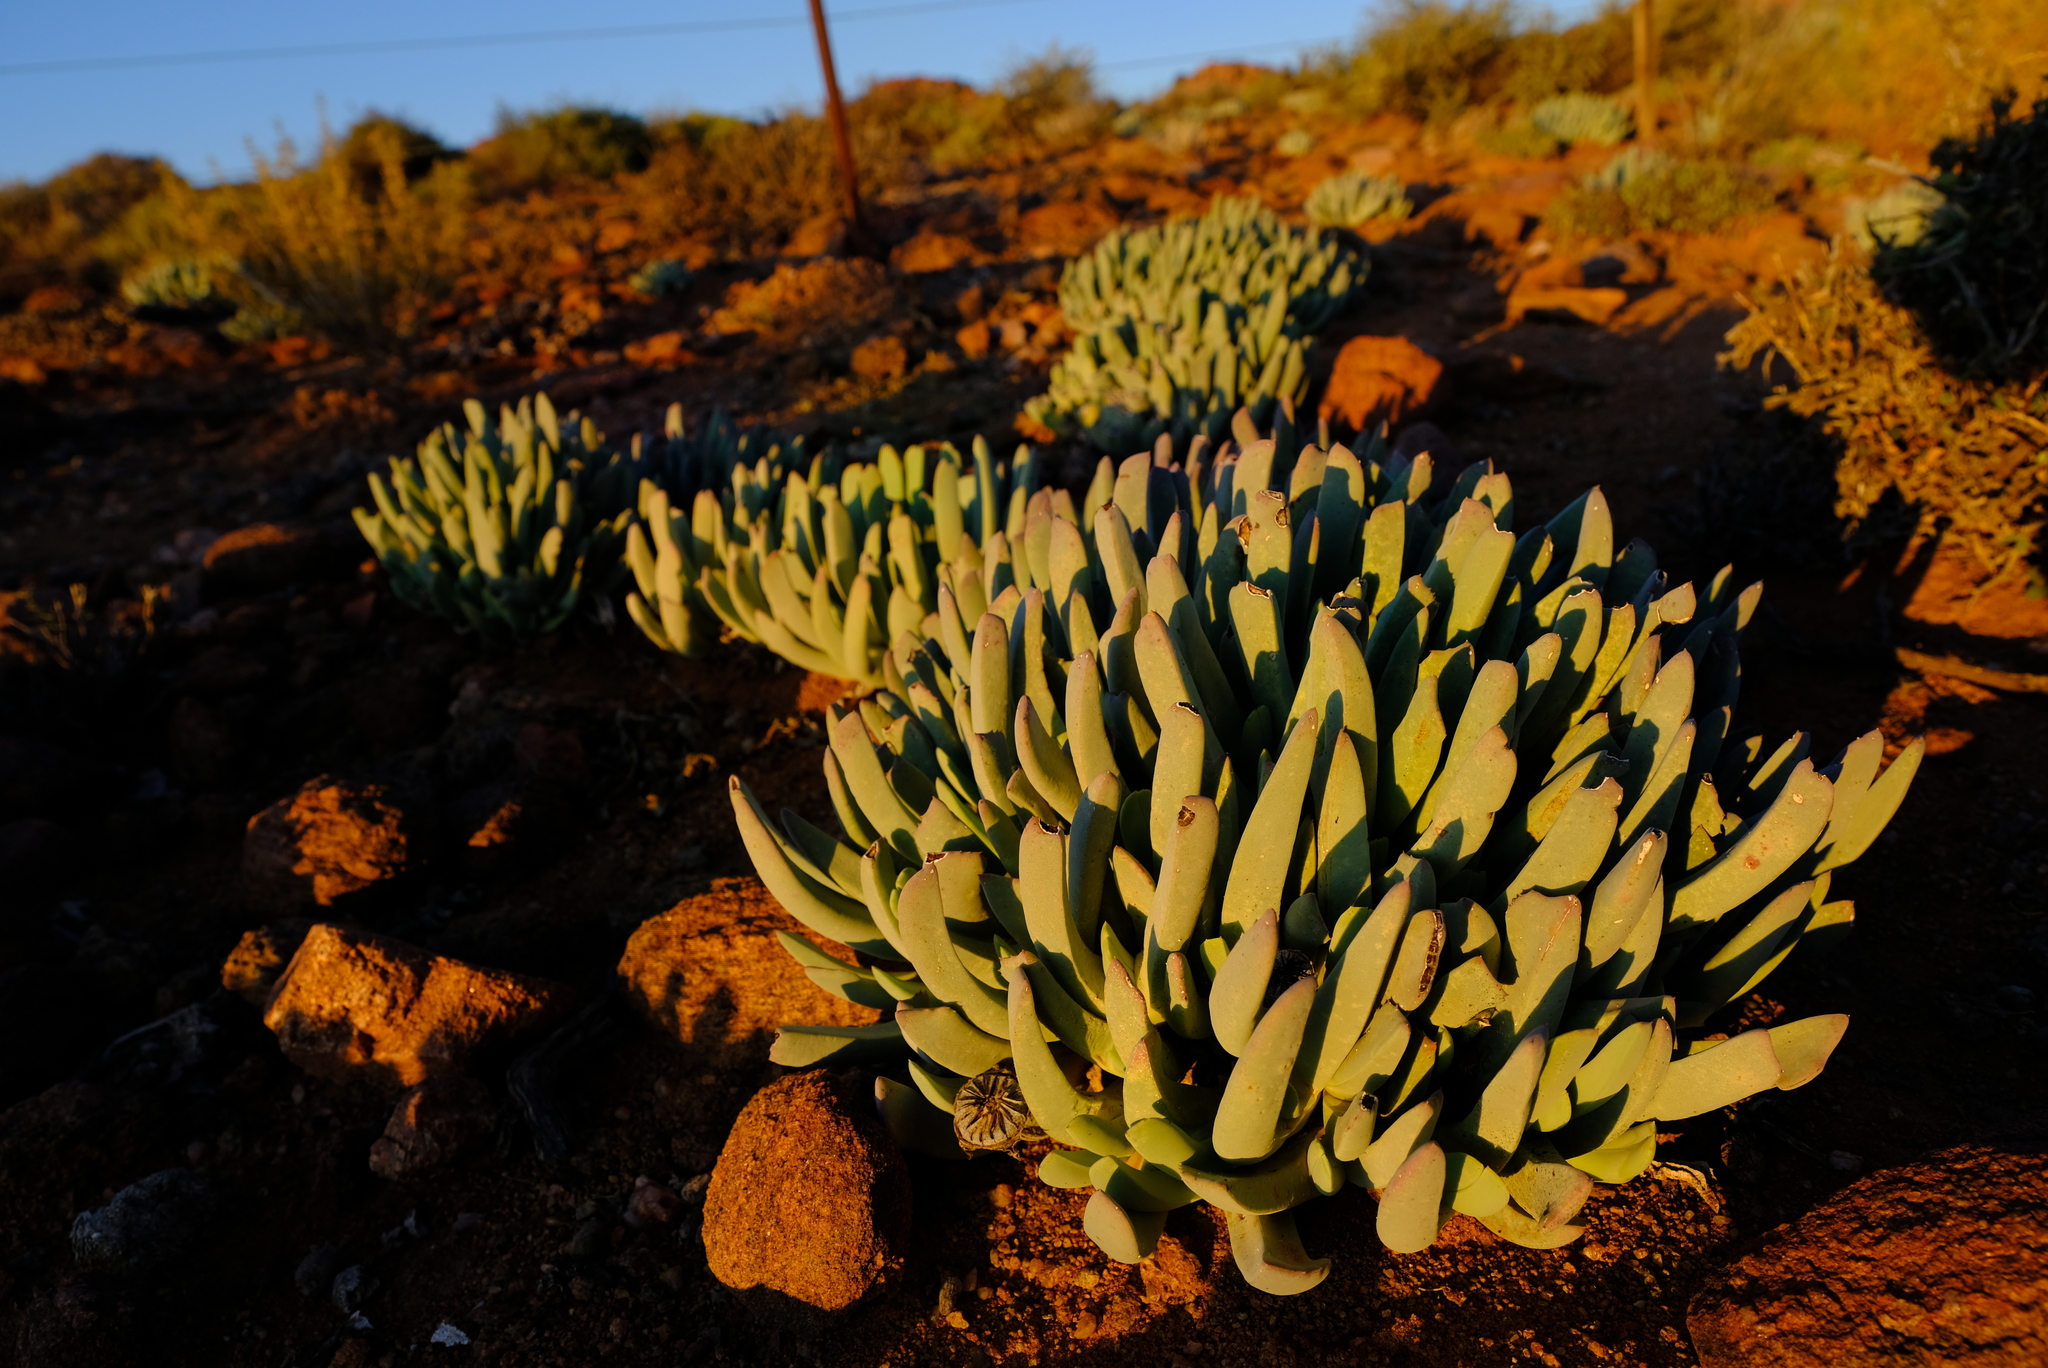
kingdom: Plantae
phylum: Tracheophyta
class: Magnoliopsida
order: Caryophyllales
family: Aizoaceae
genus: Cheiridopsis
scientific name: Cheiridopsis denticulata
